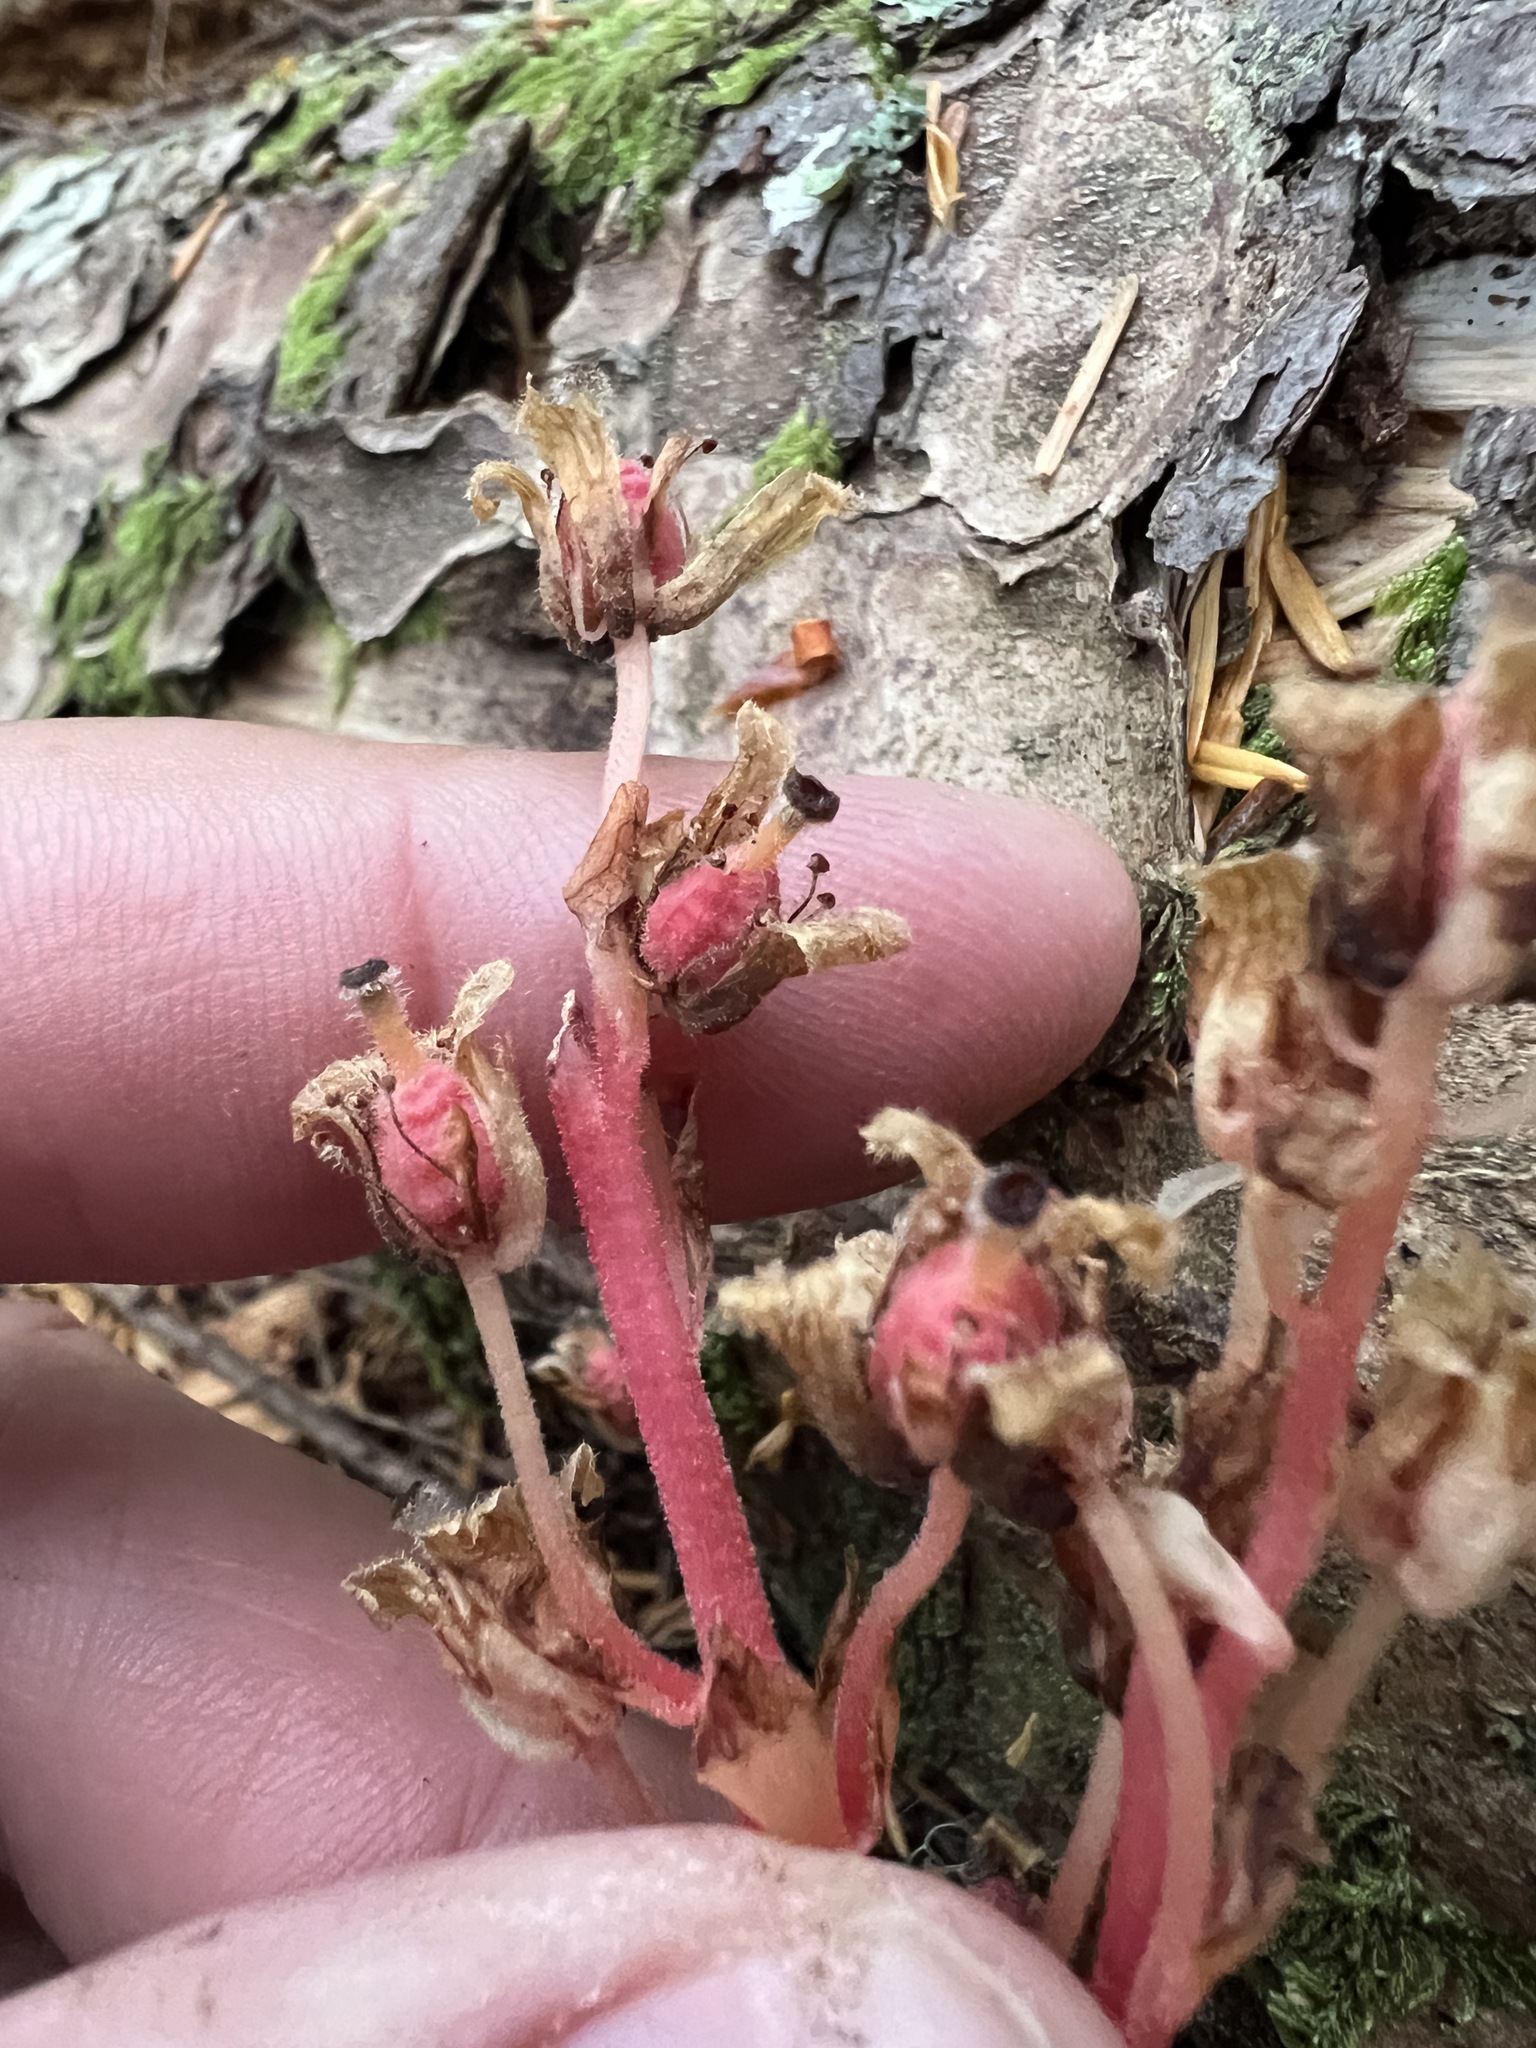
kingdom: Plantae
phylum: Tracheophyta
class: Magnoliopsida
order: Ericales
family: Ericaceae
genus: Hypopitys
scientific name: Hypopitys monotropa
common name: Yellow bird's-nest
